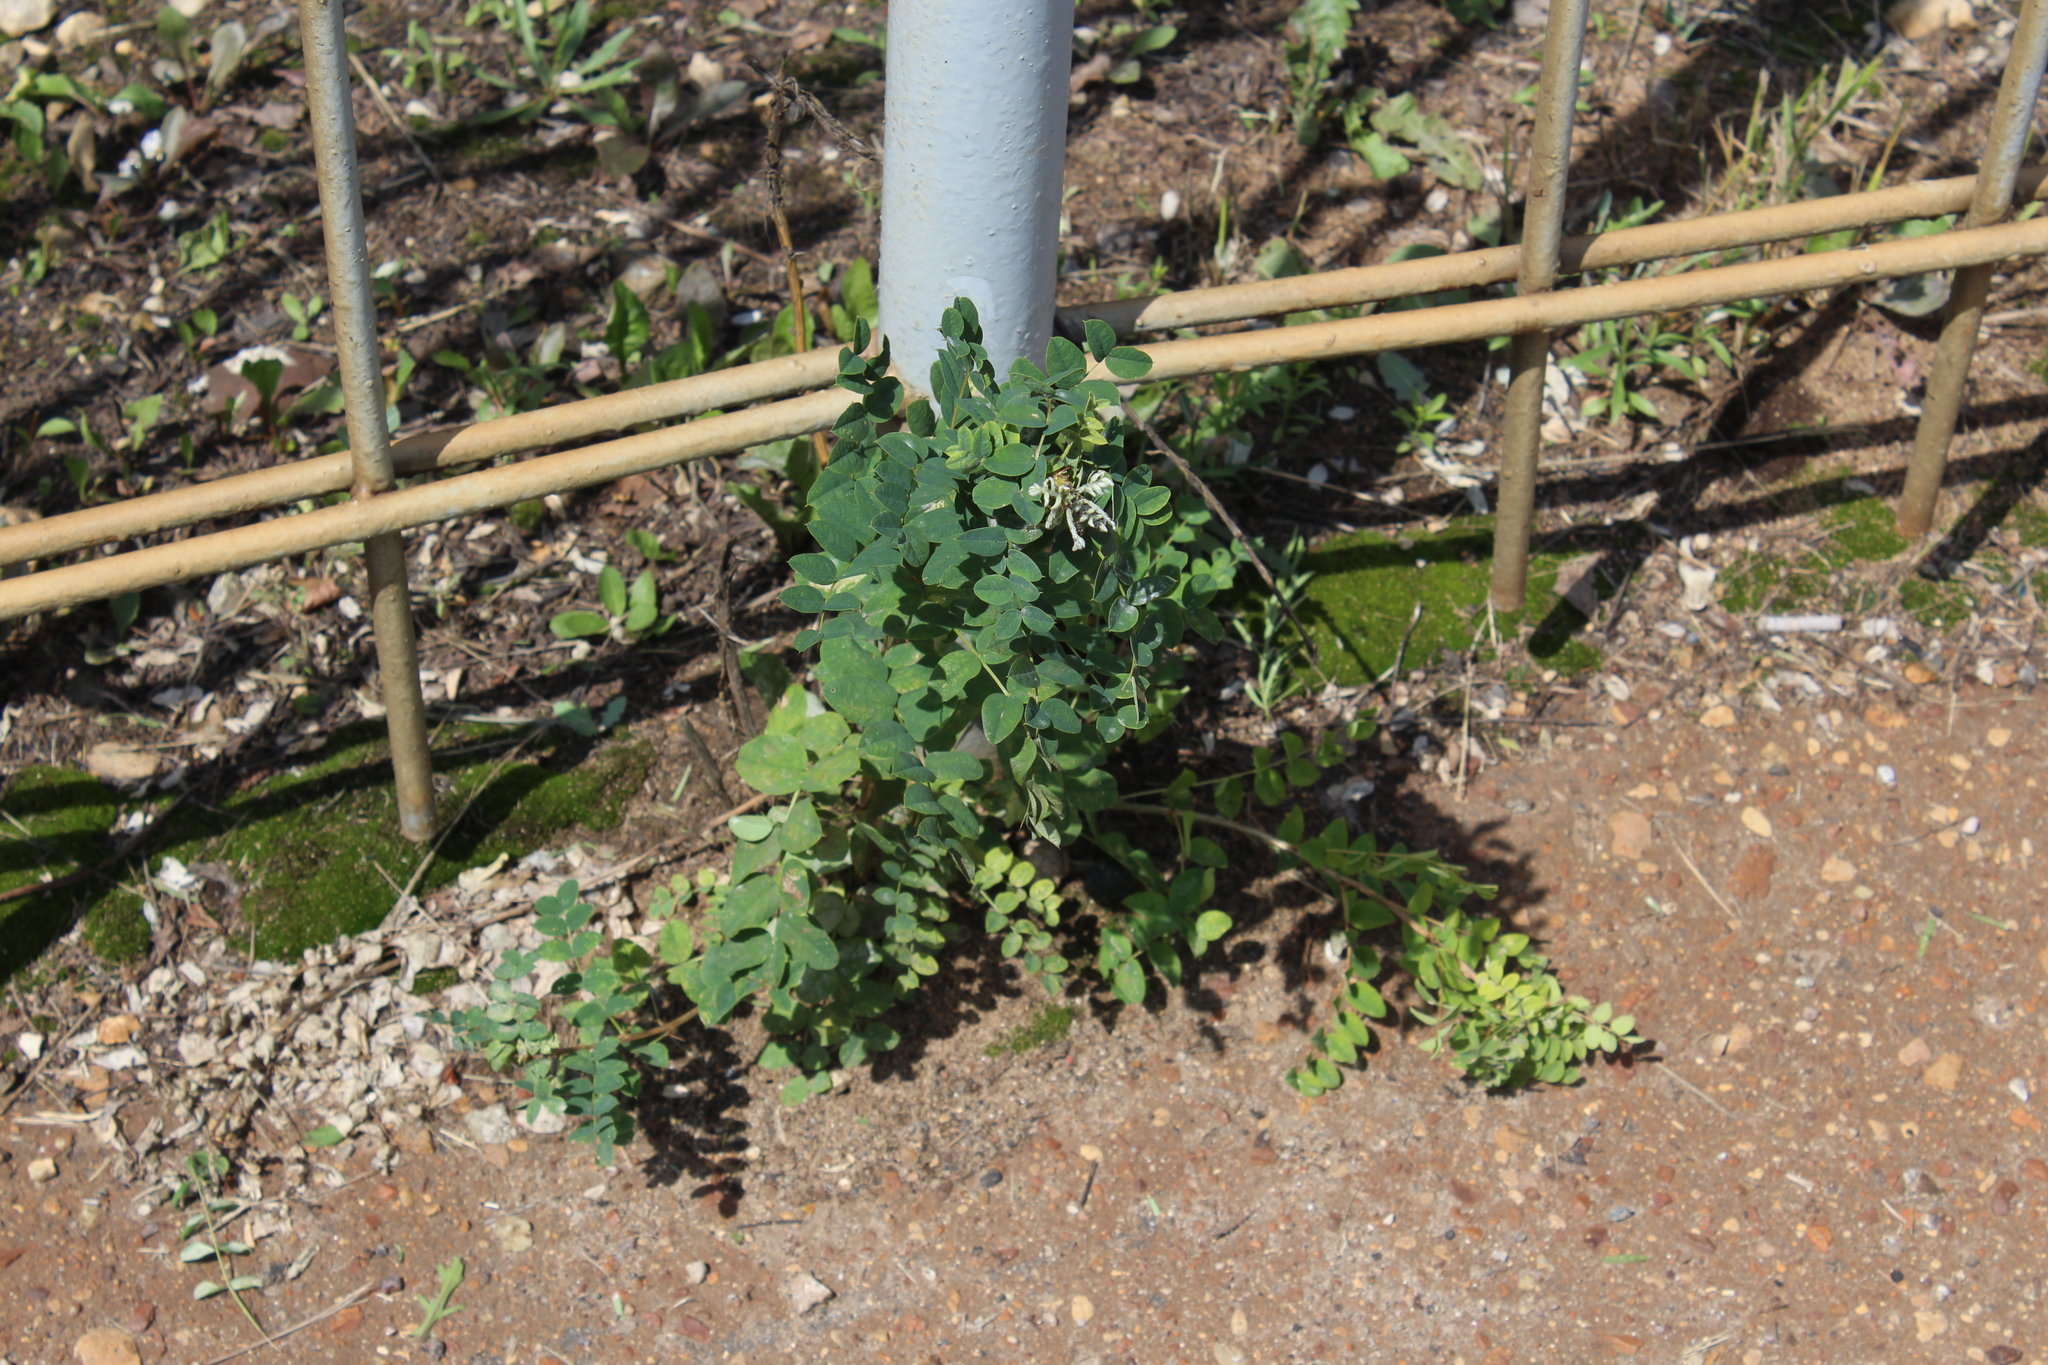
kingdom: Plantae
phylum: Tracheophyta
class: Magnoliopsida
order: Fabales
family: Fabaceae
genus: Caragana
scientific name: Caragana arborescens
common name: Siberian peashrub
